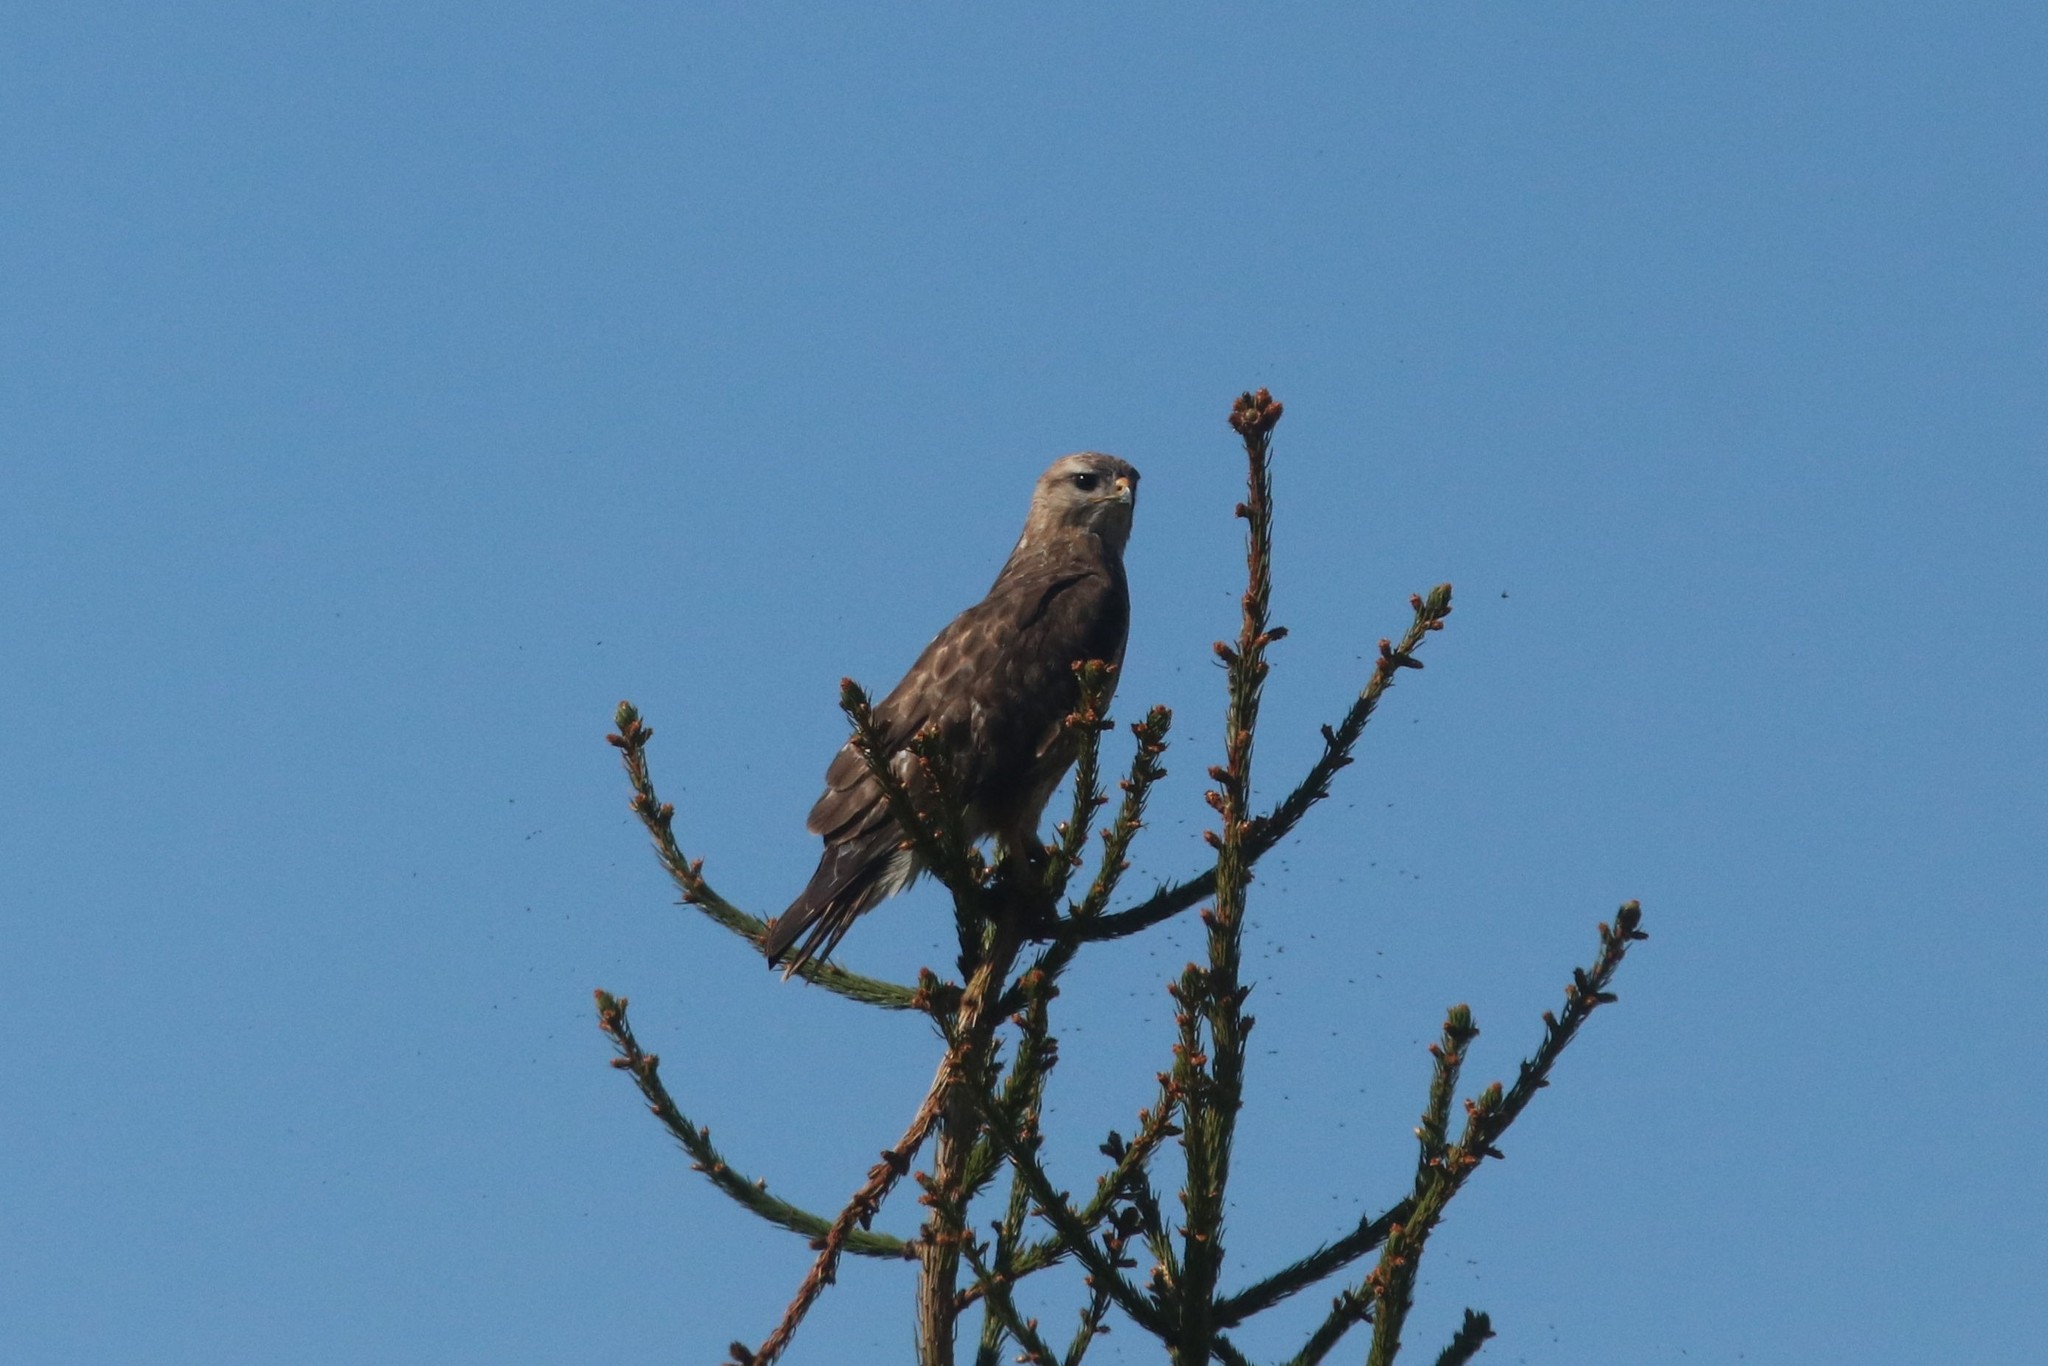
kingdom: Animalia
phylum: Chordata
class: Aves
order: Accipitriformes
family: Accipitridae
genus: Buteo
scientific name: Buteo buteo
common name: Common buzzard
